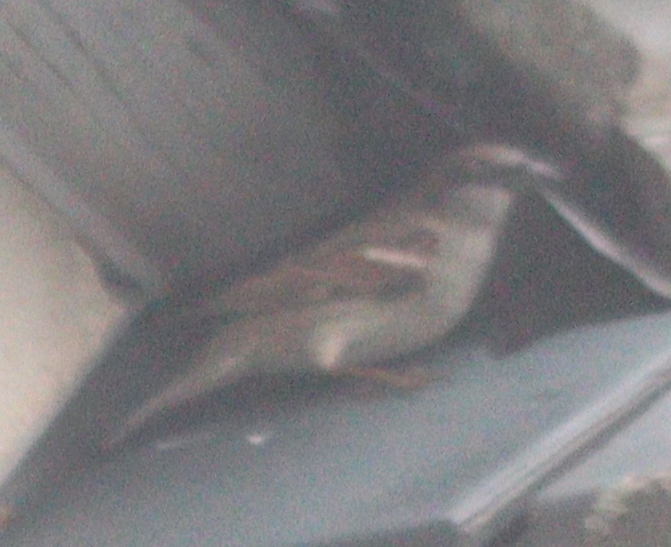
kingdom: Animalia
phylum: Chordata
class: Aves
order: Passeriformes
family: Passeridae
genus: Passer
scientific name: Passer domesticus
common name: House sparrow
